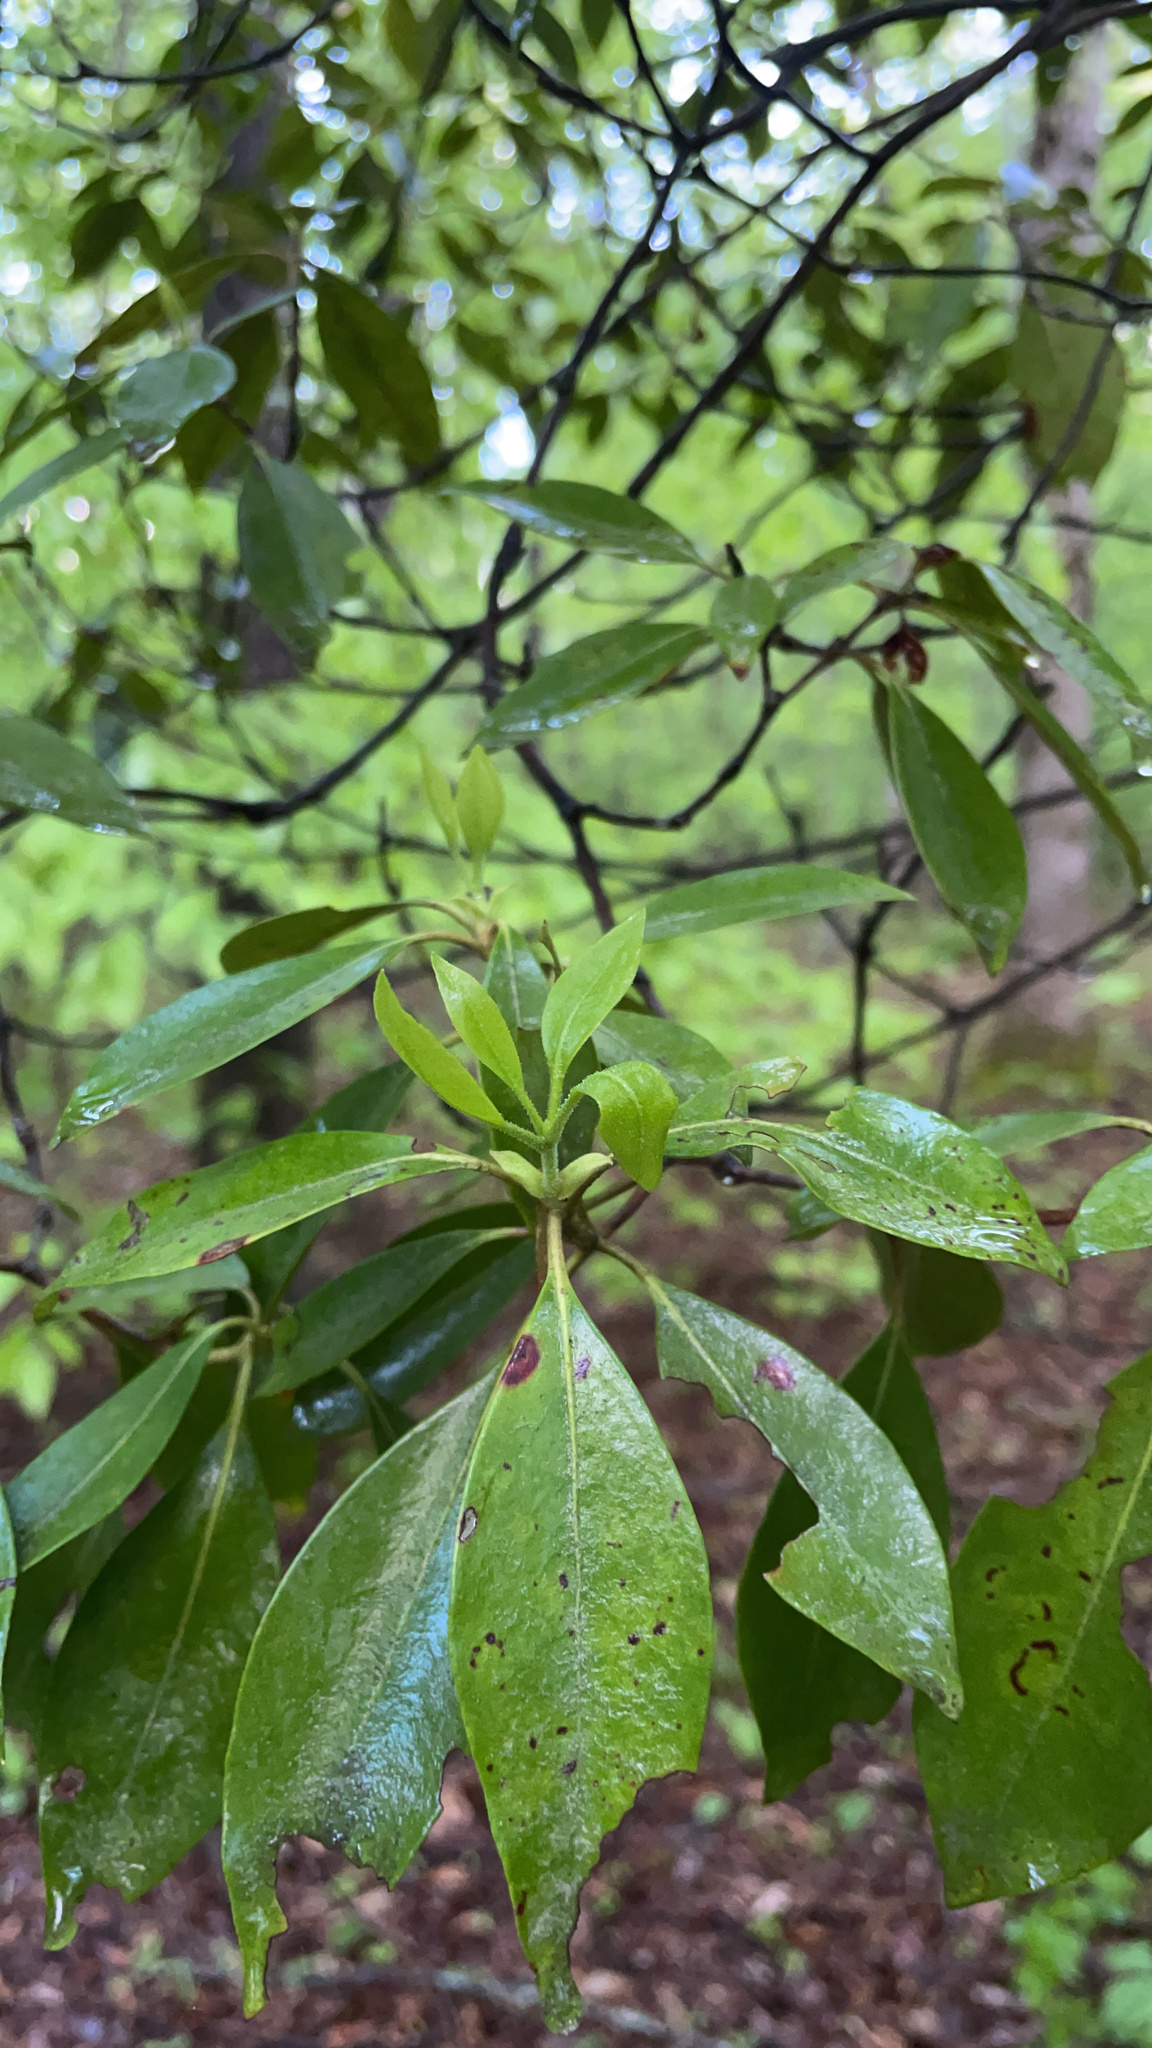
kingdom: Plantae
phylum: Tracheophyta
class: Magnoliopsida
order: Ericales
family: Ericaceae
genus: Kalmia
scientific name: Kalmia latifolia
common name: Mountain-laurel
